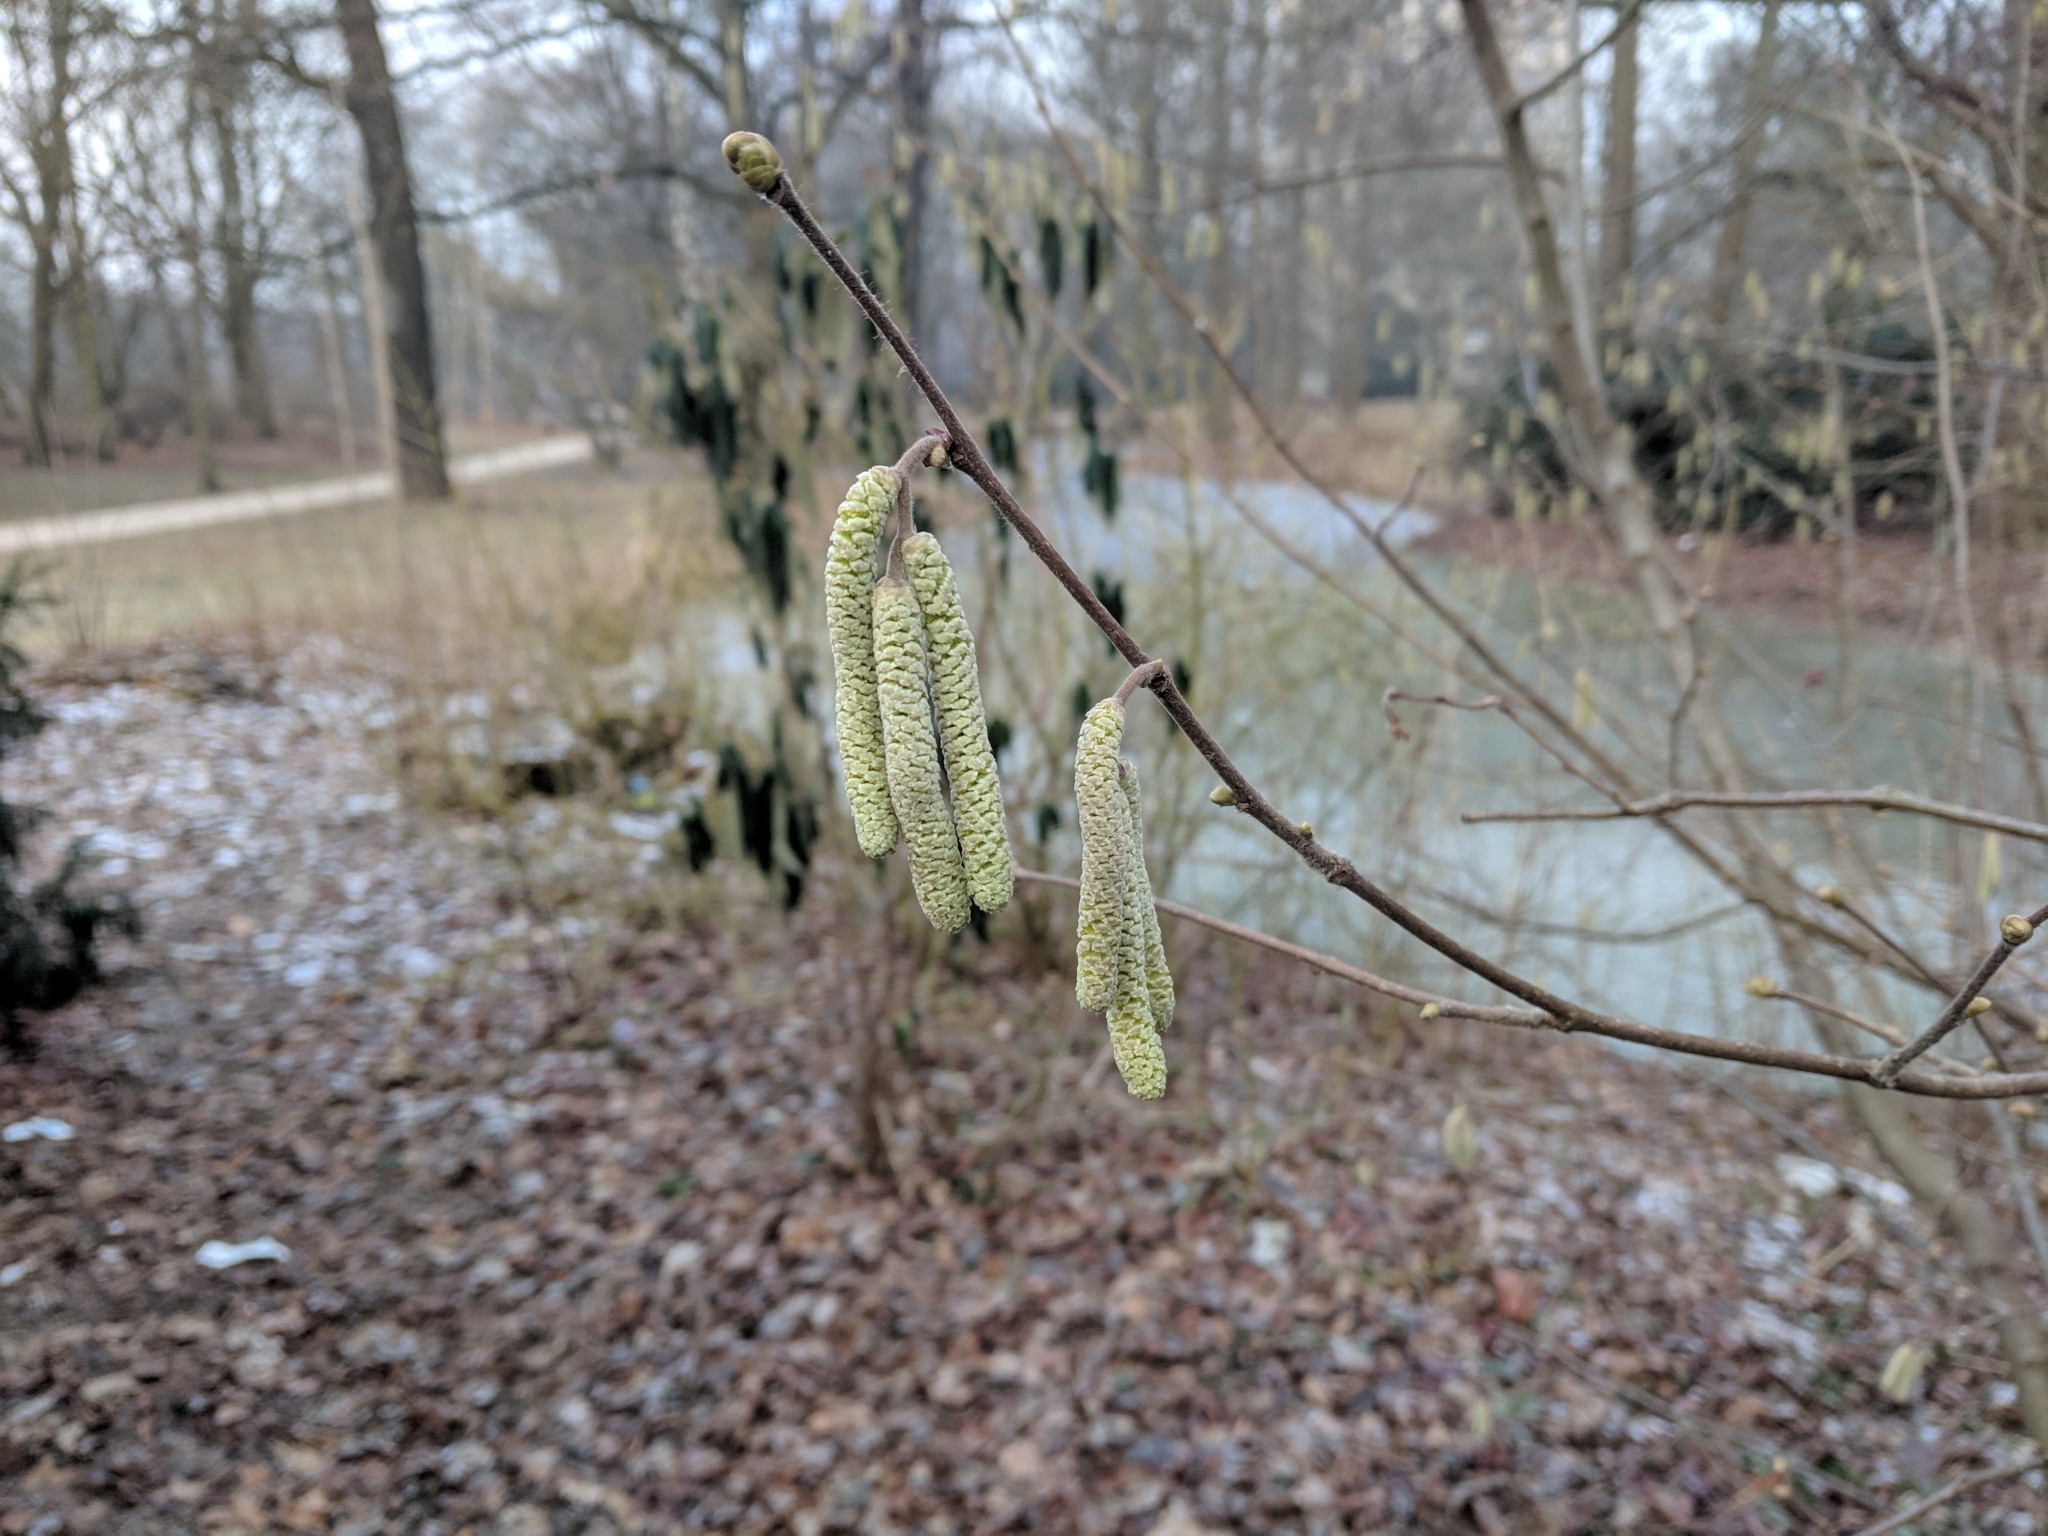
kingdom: Plantae
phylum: Tracheophyta
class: Magnoliopsida
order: Fagales
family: Betulaceae
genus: Corylus
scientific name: Corylus avellana
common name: European hazel
